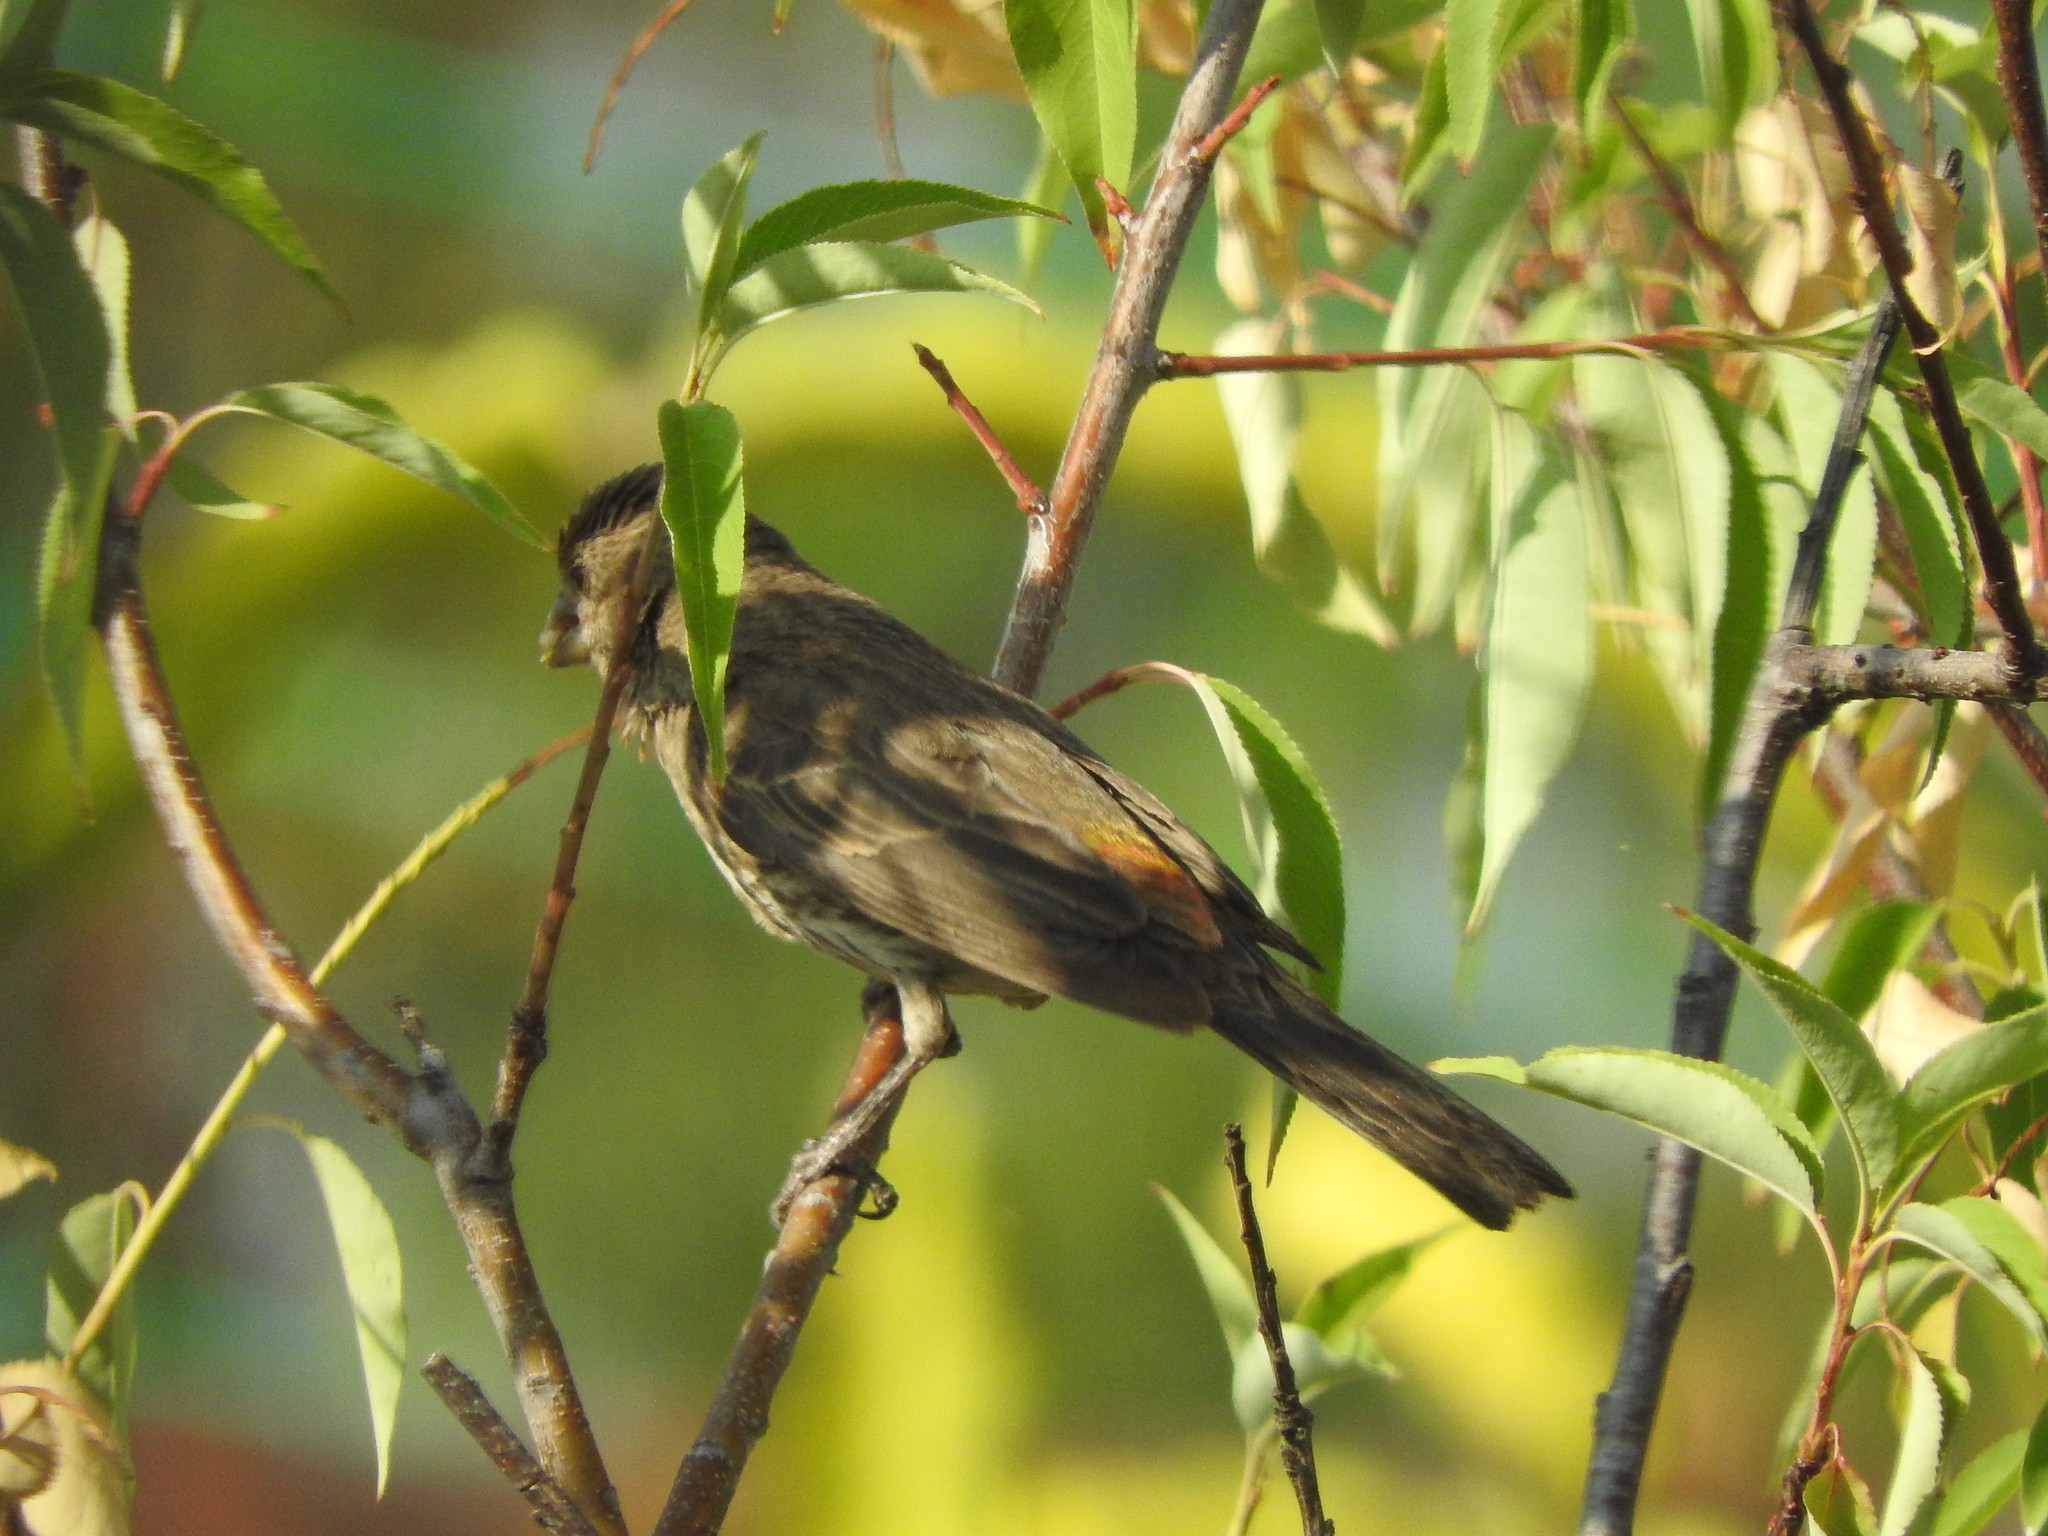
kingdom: Animalia
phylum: Chordata
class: Aves
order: Passeriformes
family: Fringillidae
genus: Haemorhous
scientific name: Haemorhous mexicanus
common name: House finch
